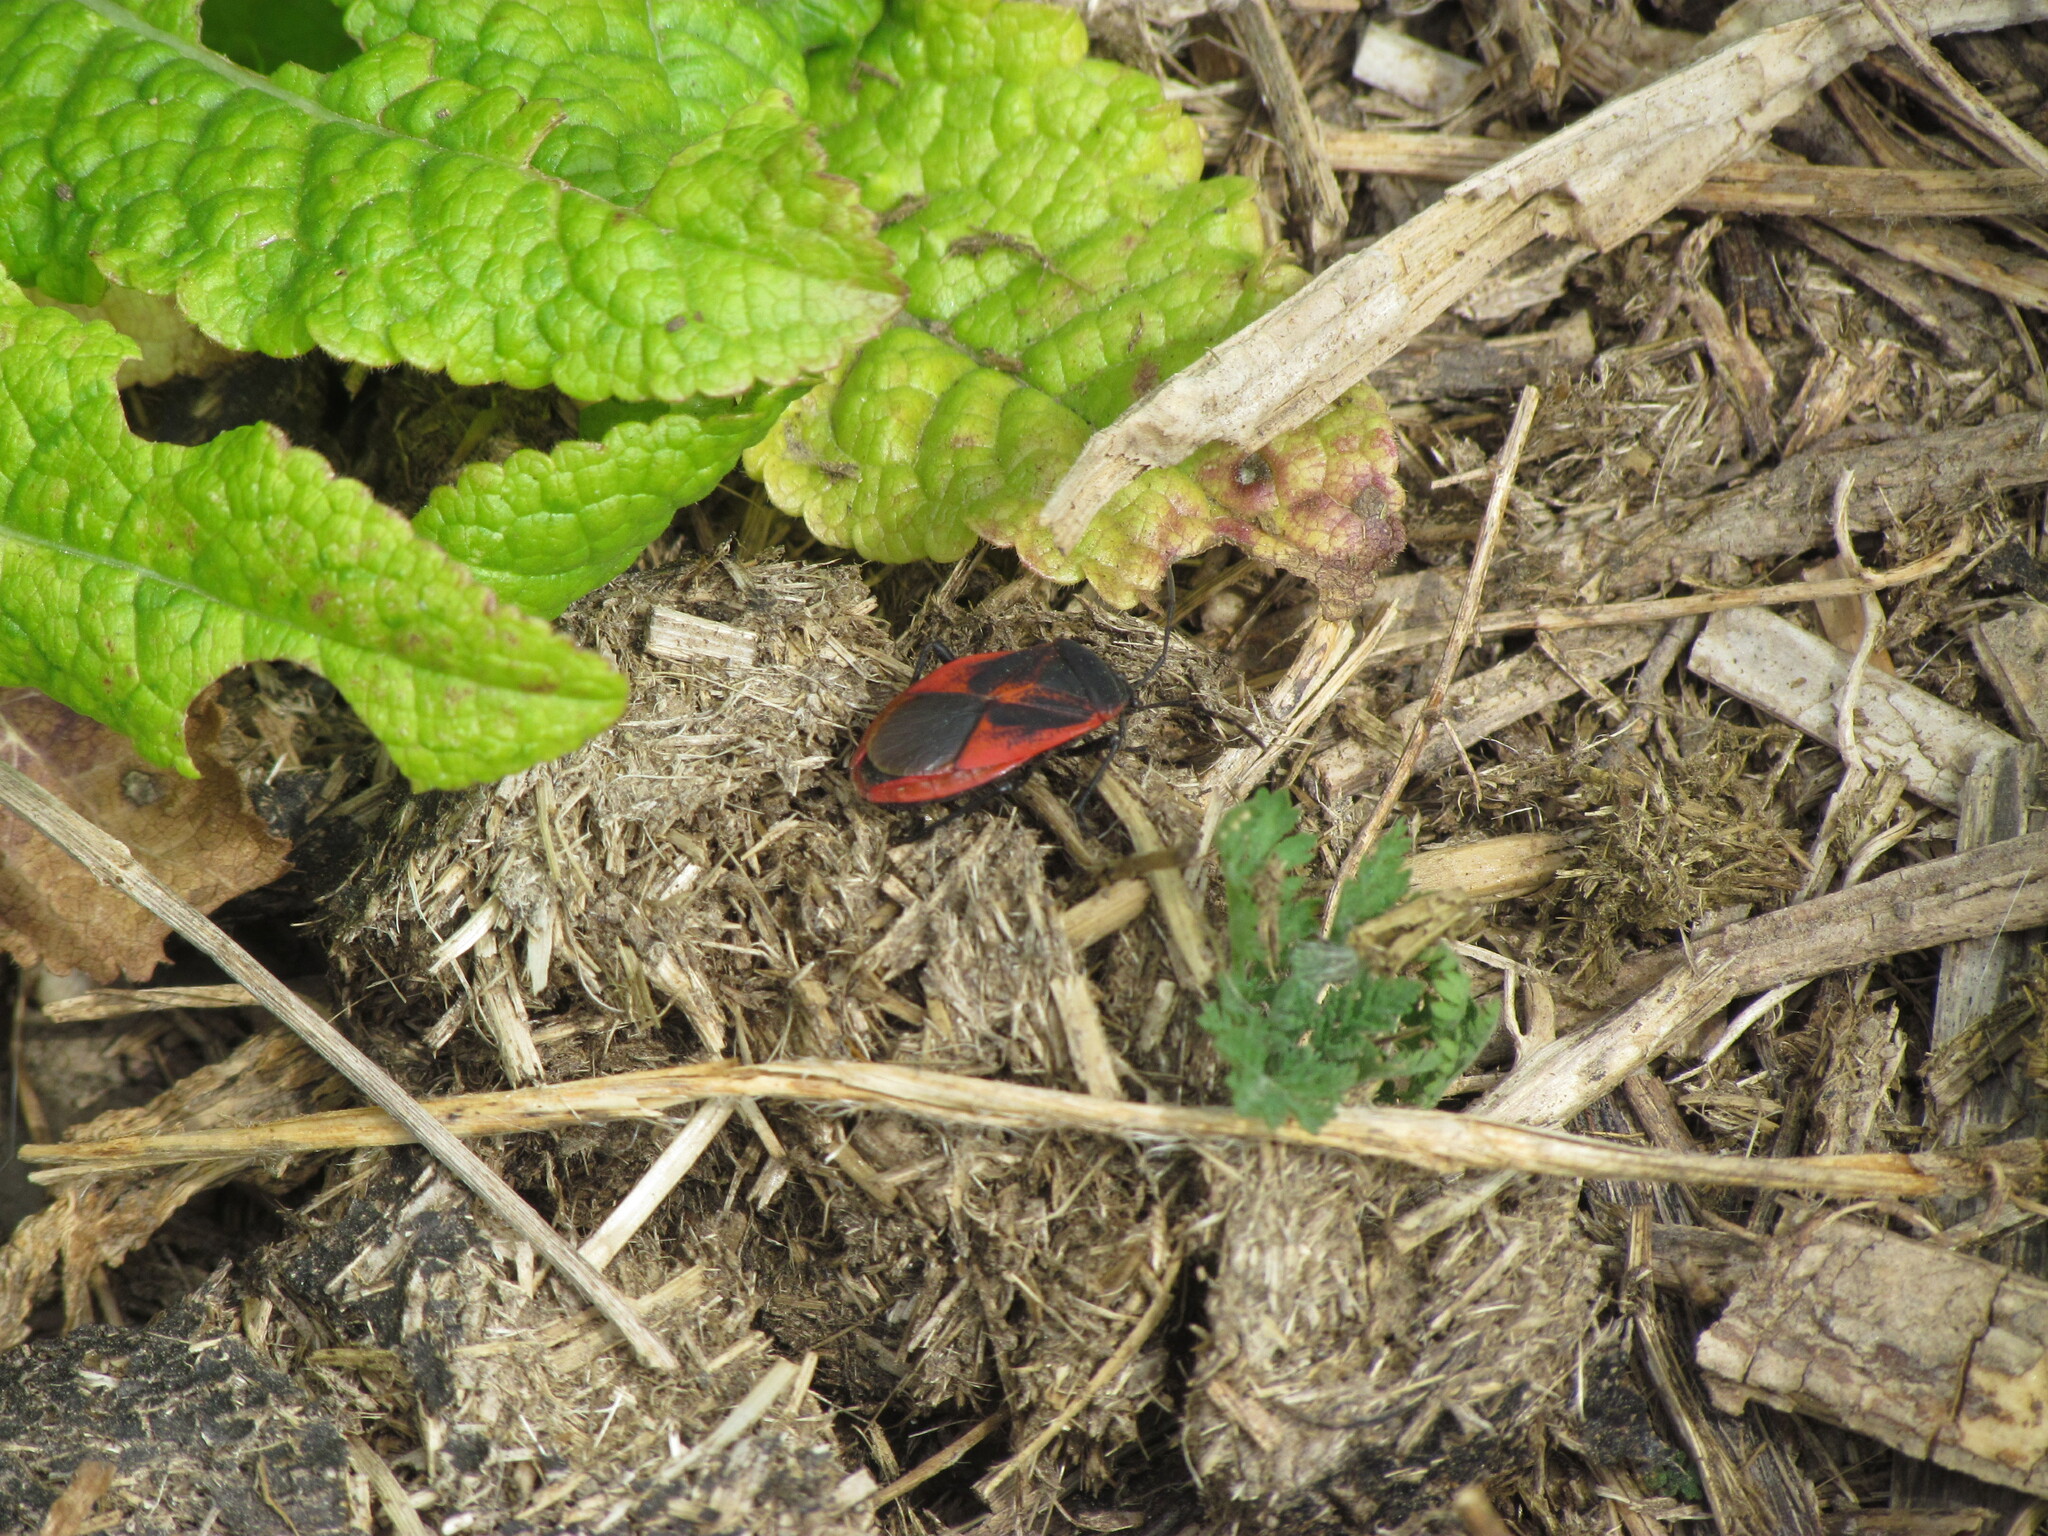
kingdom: Animalia
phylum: Arthropoda
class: Insecta
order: Hemiptera
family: Largidae
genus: Largus
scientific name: Largus rufipennis
